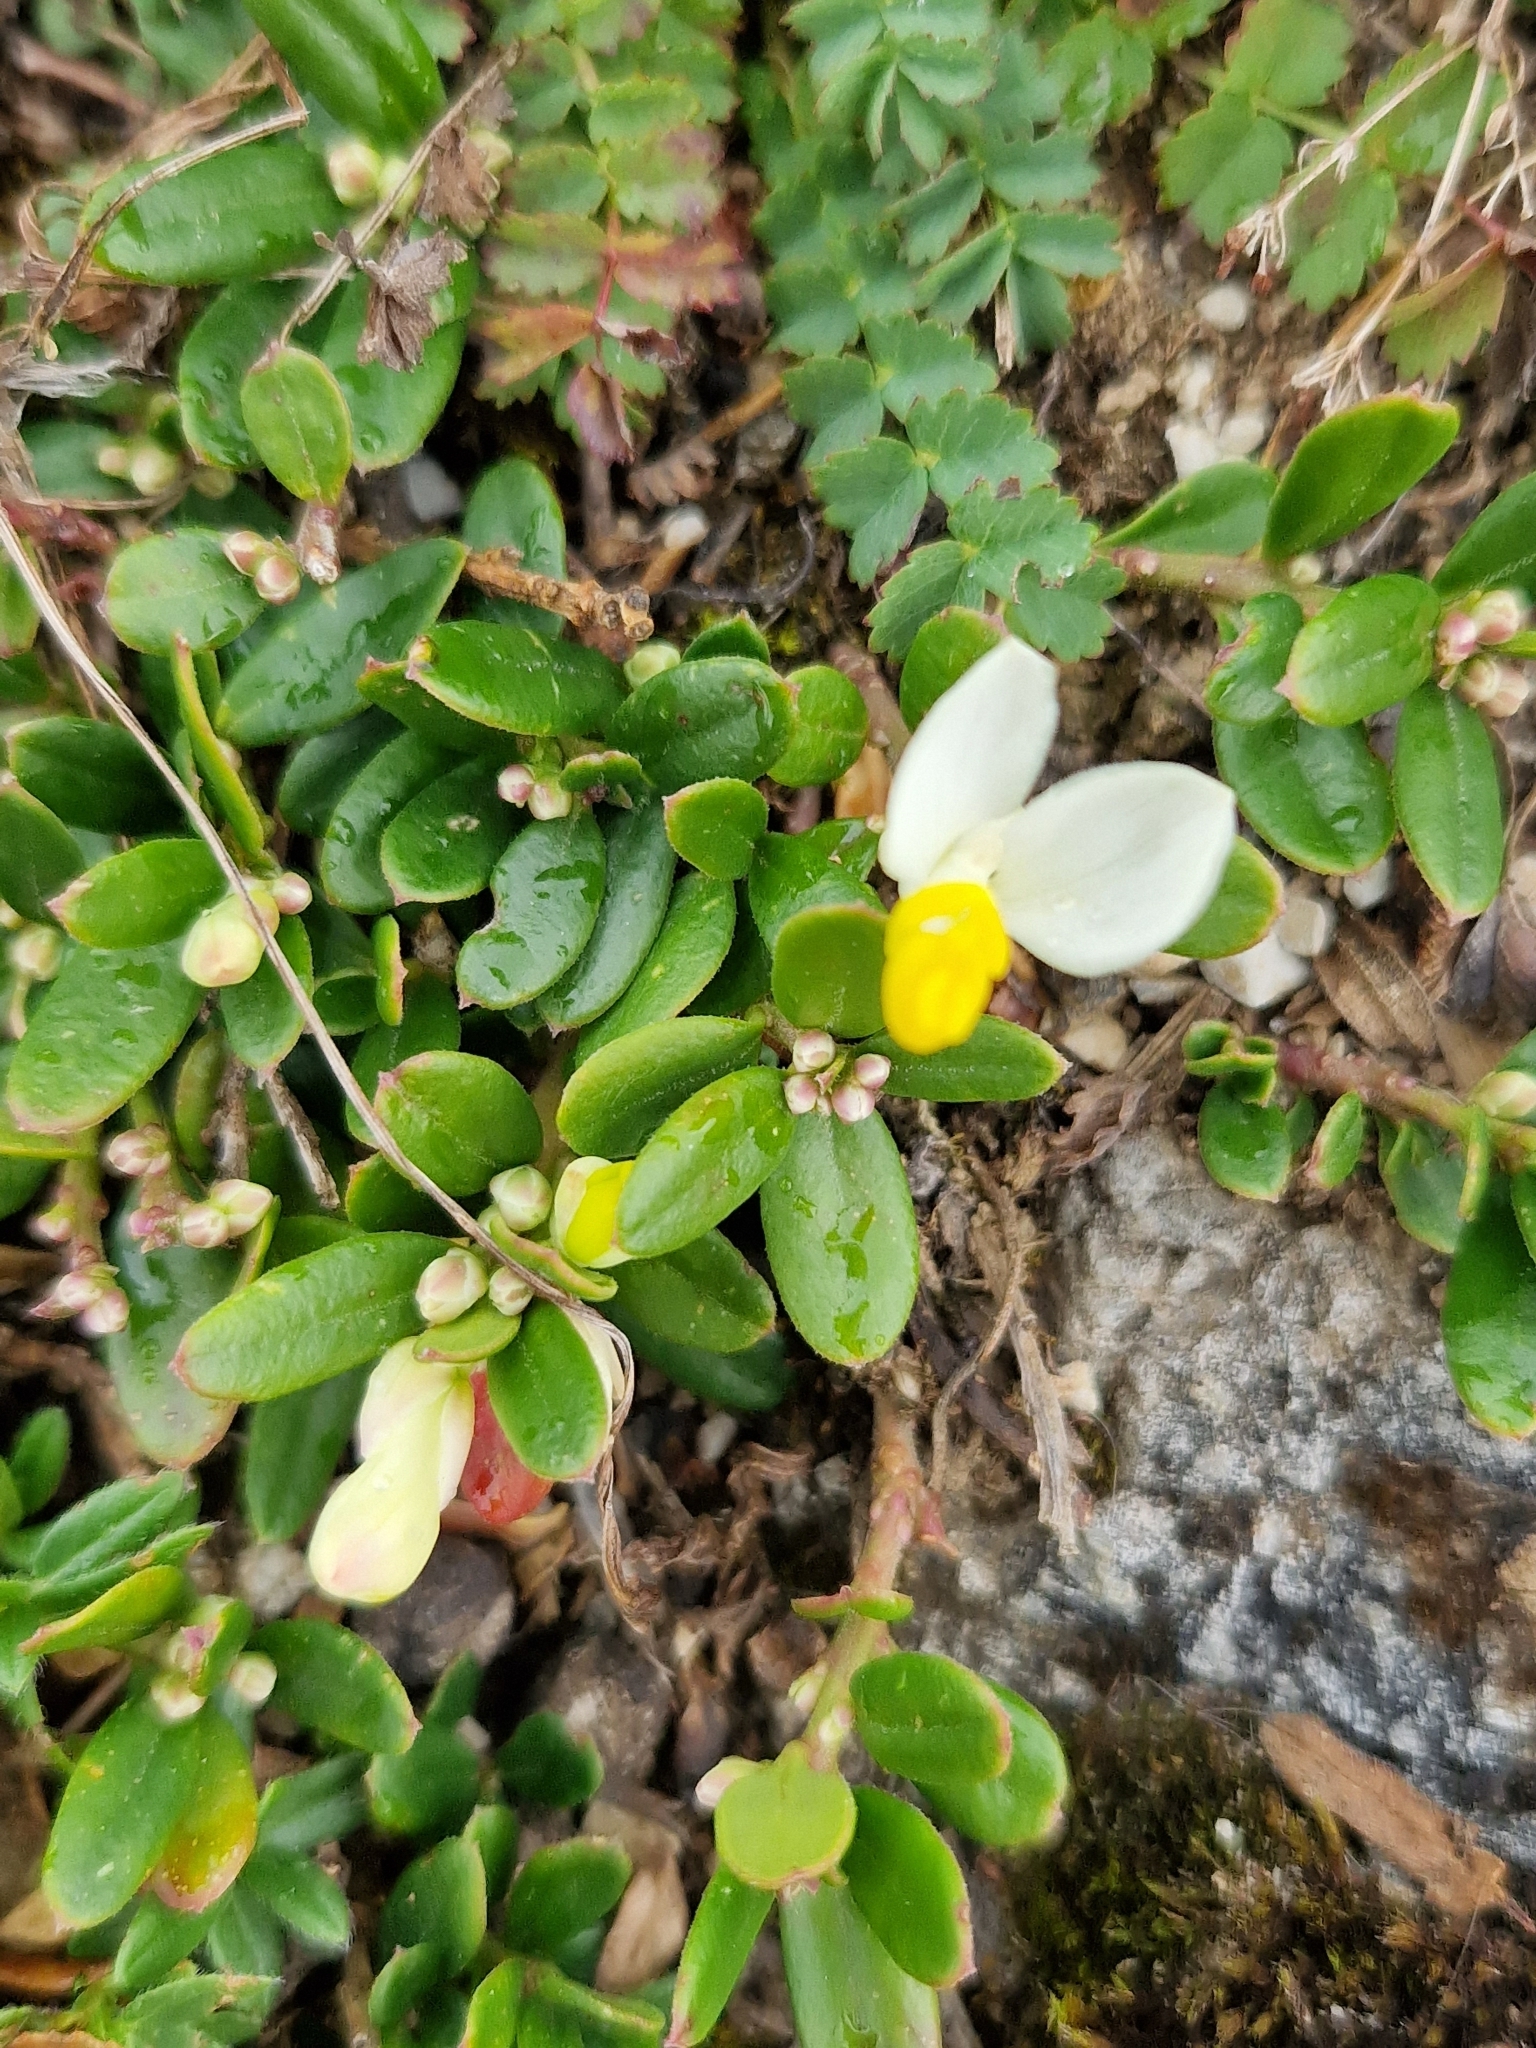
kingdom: Plantae
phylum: Tracheophyta
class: Magnoliopsida
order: Fabales
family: Polygalaceae
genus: Polygaloides
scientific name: Polygaloides chamaebuxus
